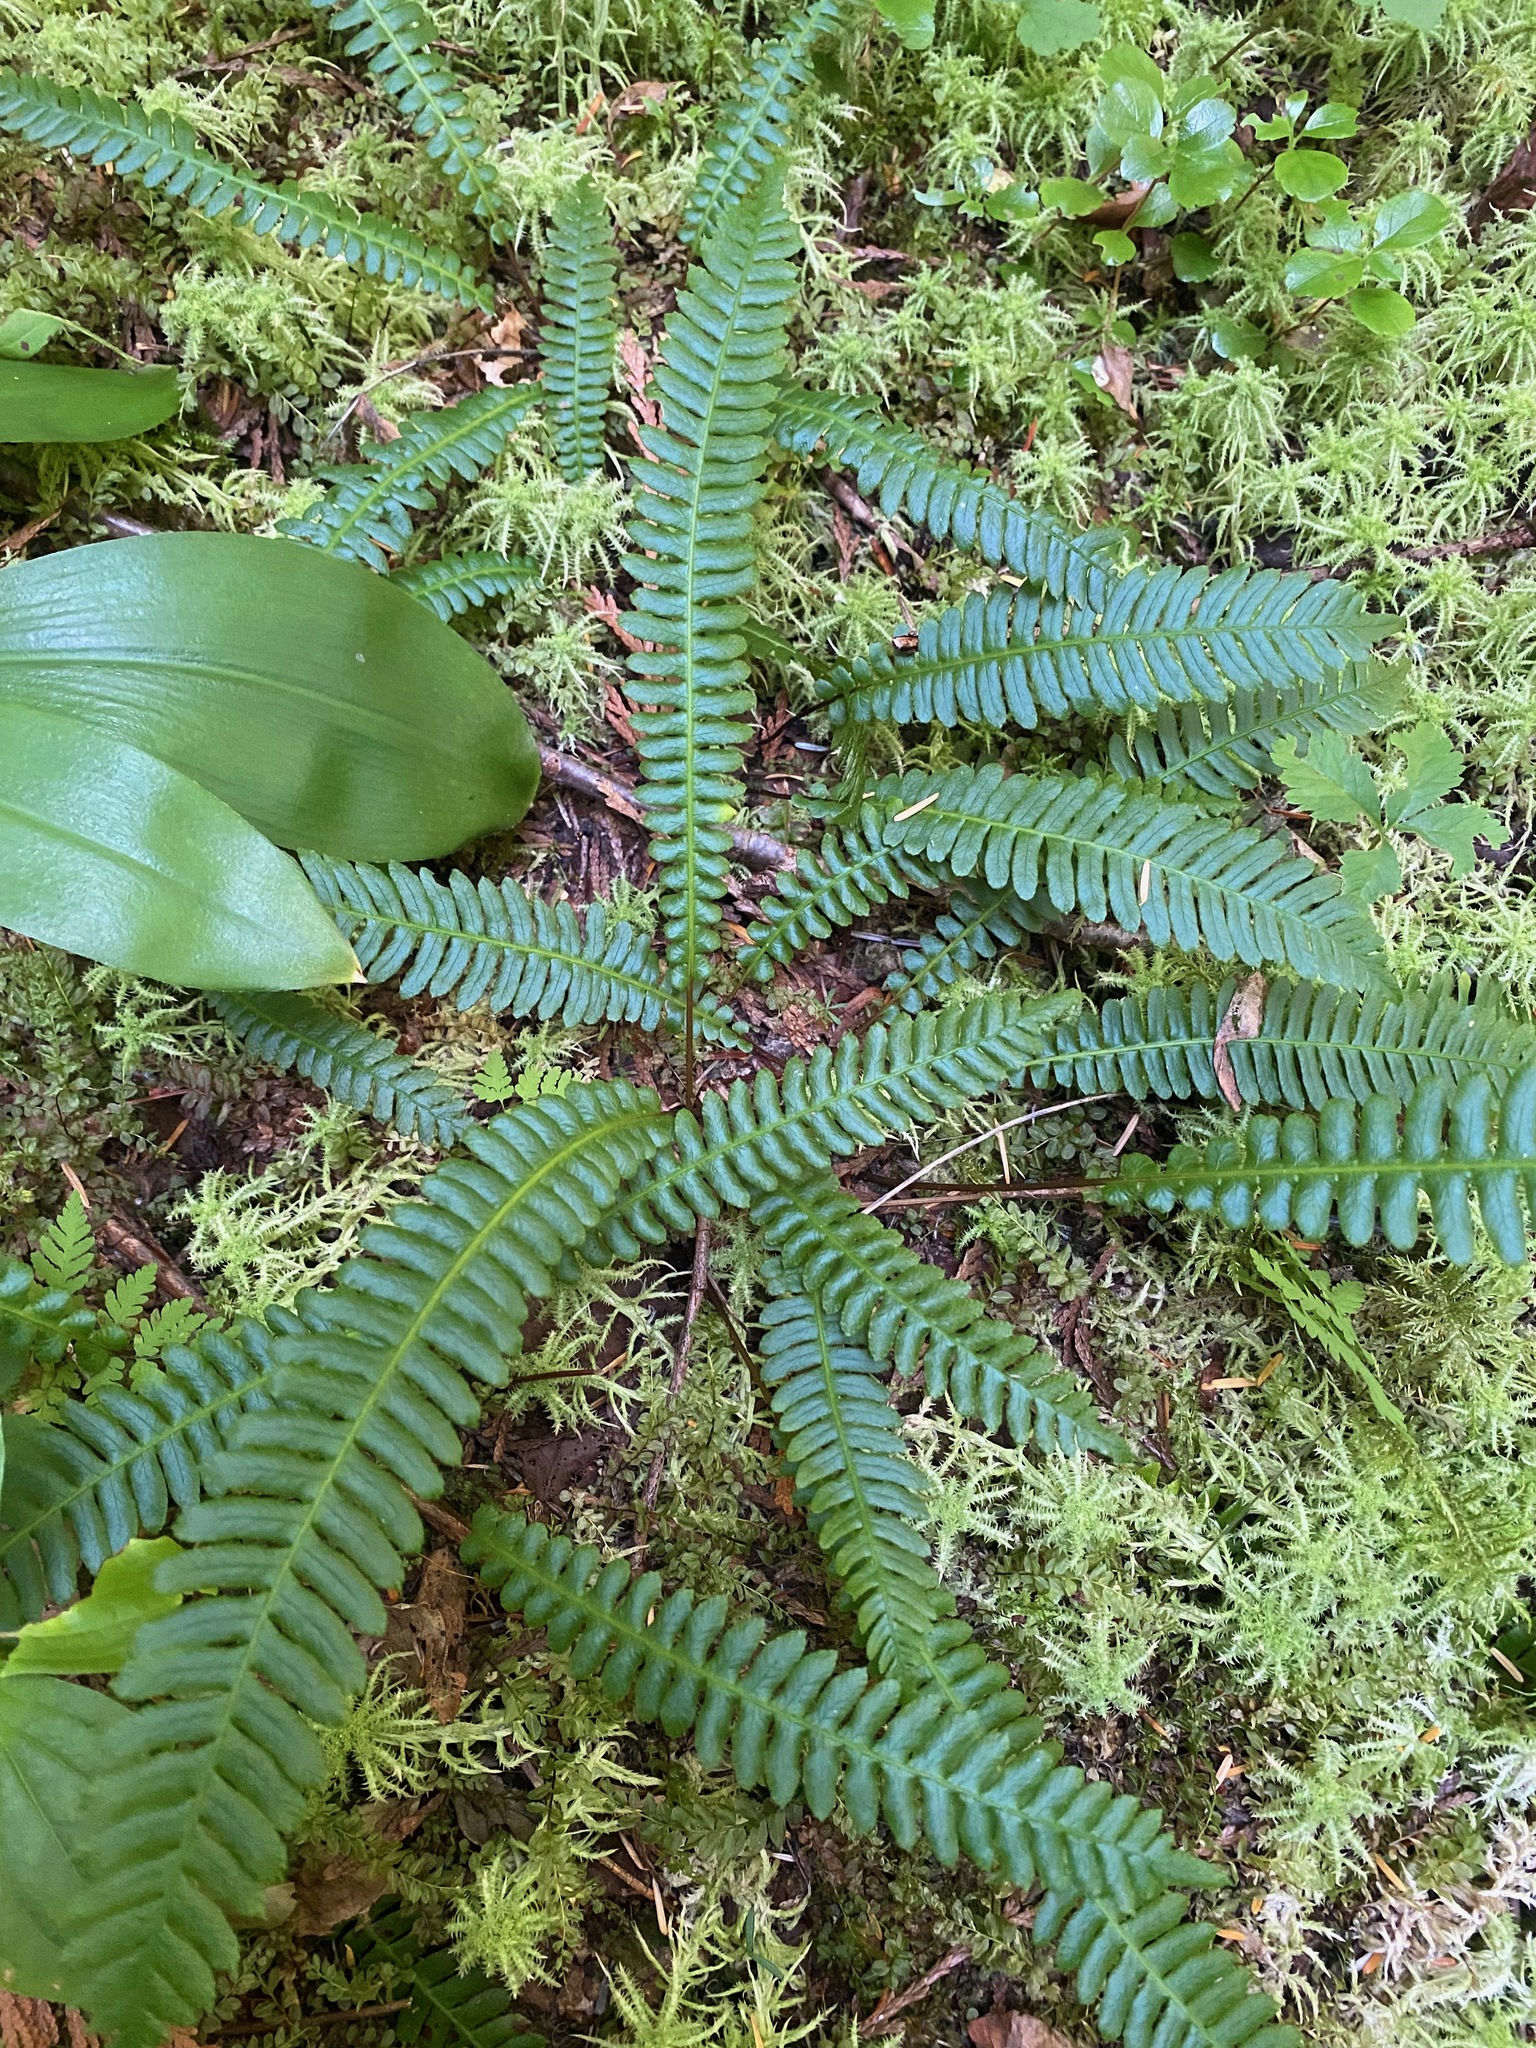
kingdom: Plantae
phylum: Tracheophyta
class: Polypodiopsida
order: Polypodiales
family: Blechnaceae
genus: Struthiopteris
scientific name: Struthiopteris spicant
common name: Deer fern
